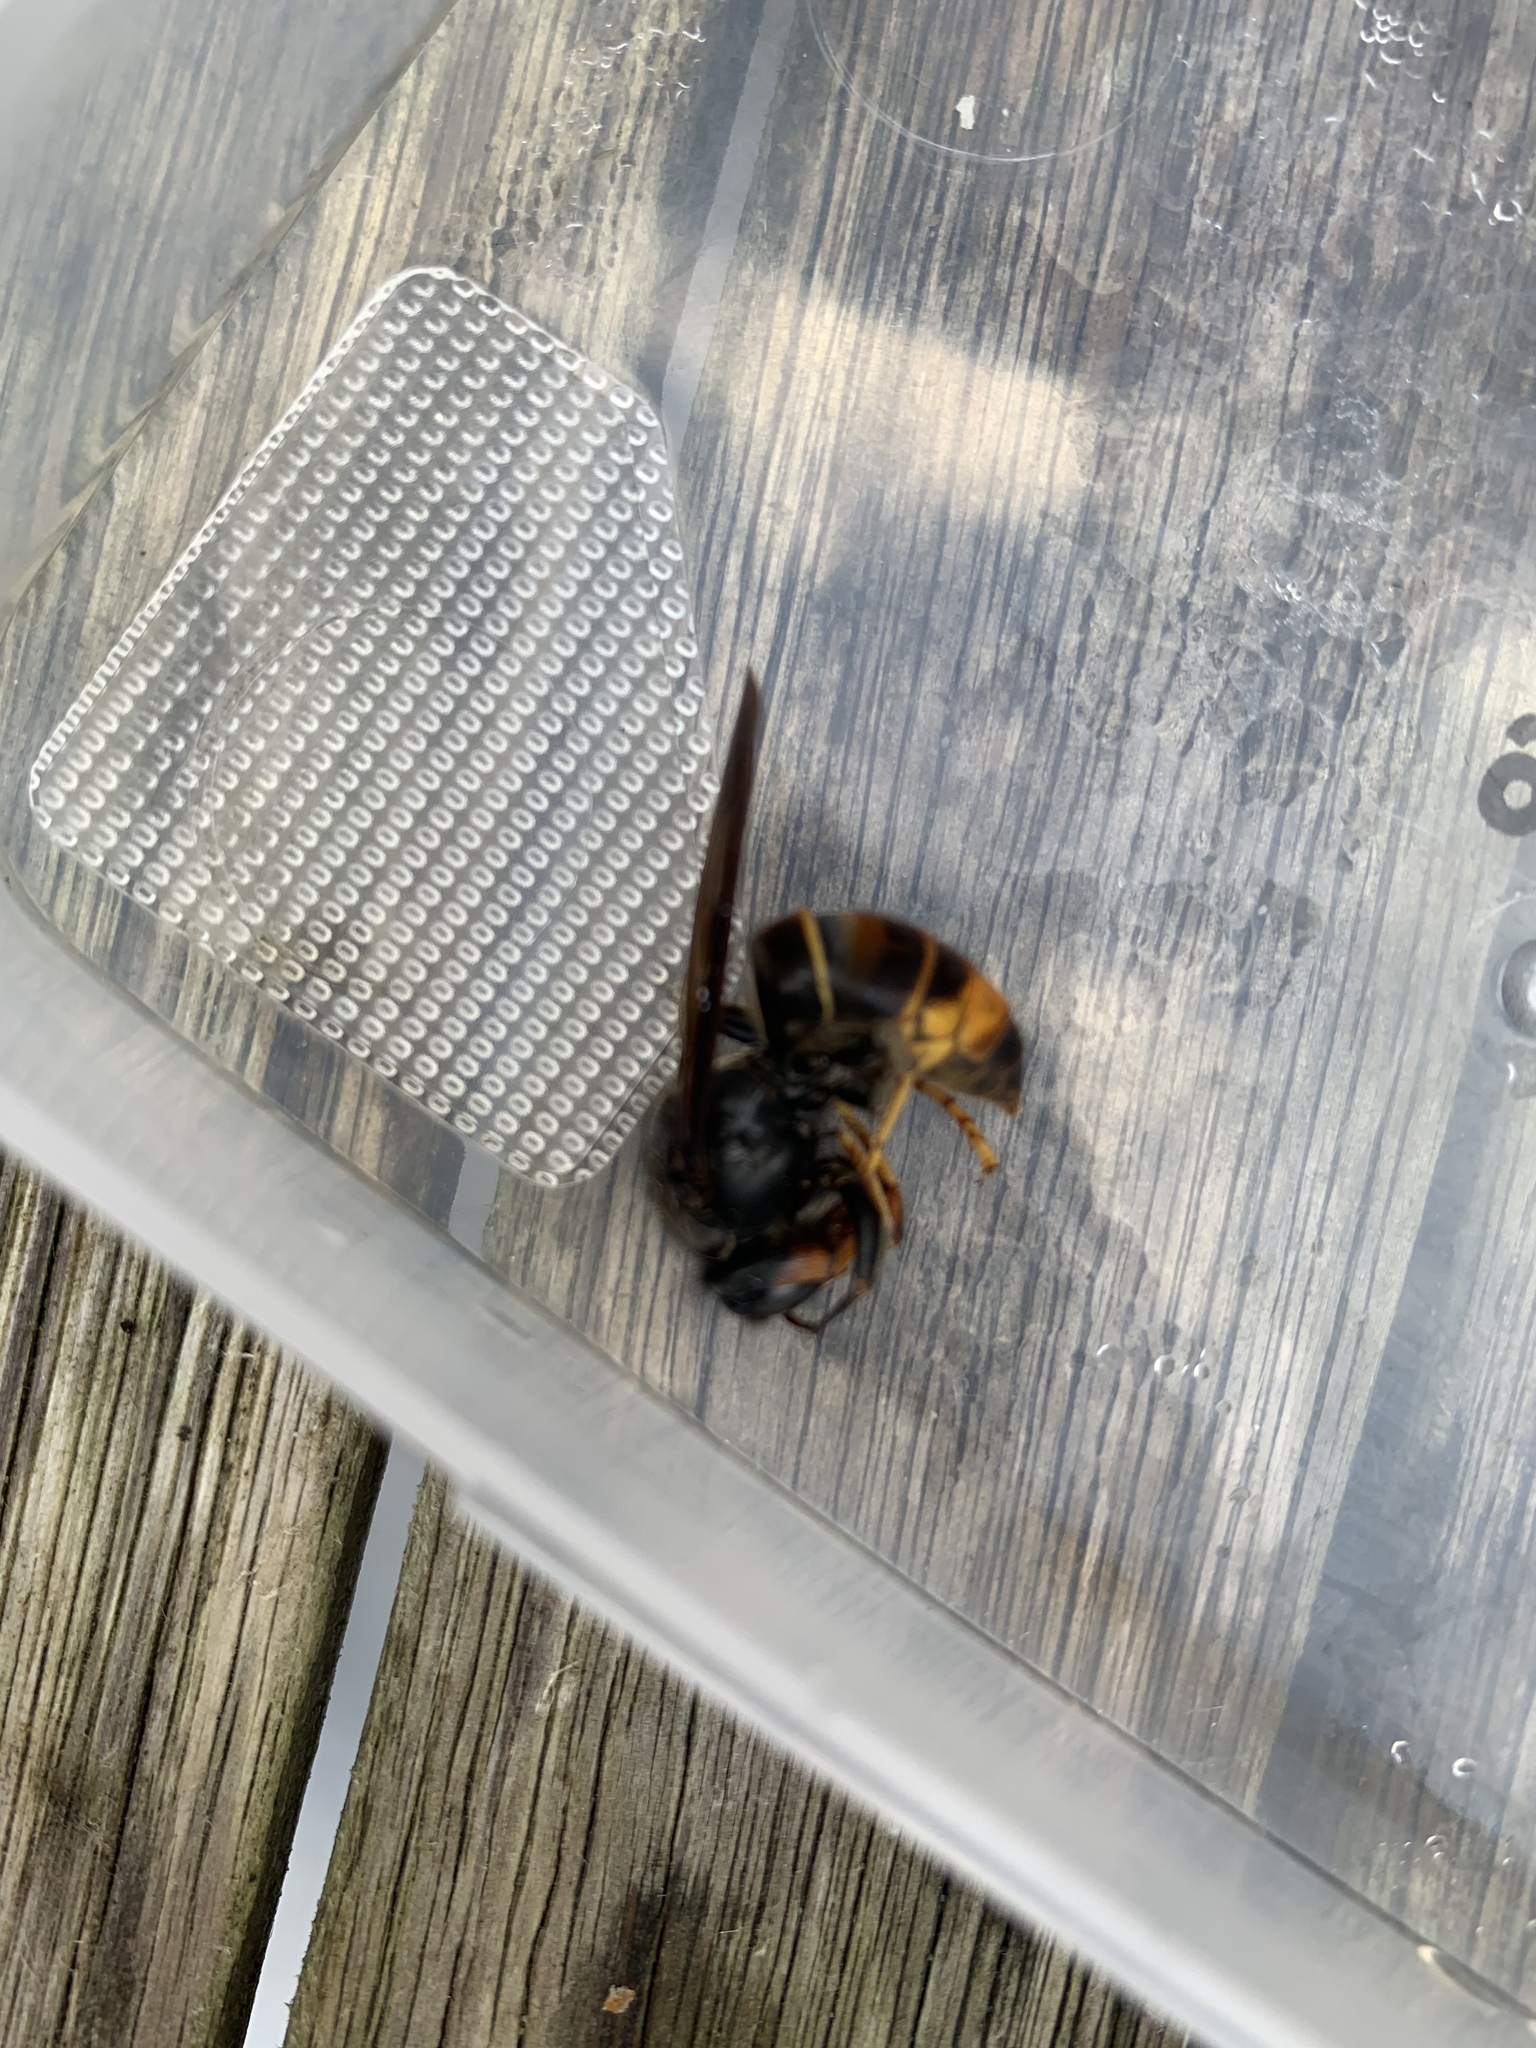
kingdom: Animalia
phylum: Arthropoda
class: Insecta
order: Hymenoptera
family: Vespidae
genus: Vespa
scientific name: Vespa velutina
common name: Asian hornet
